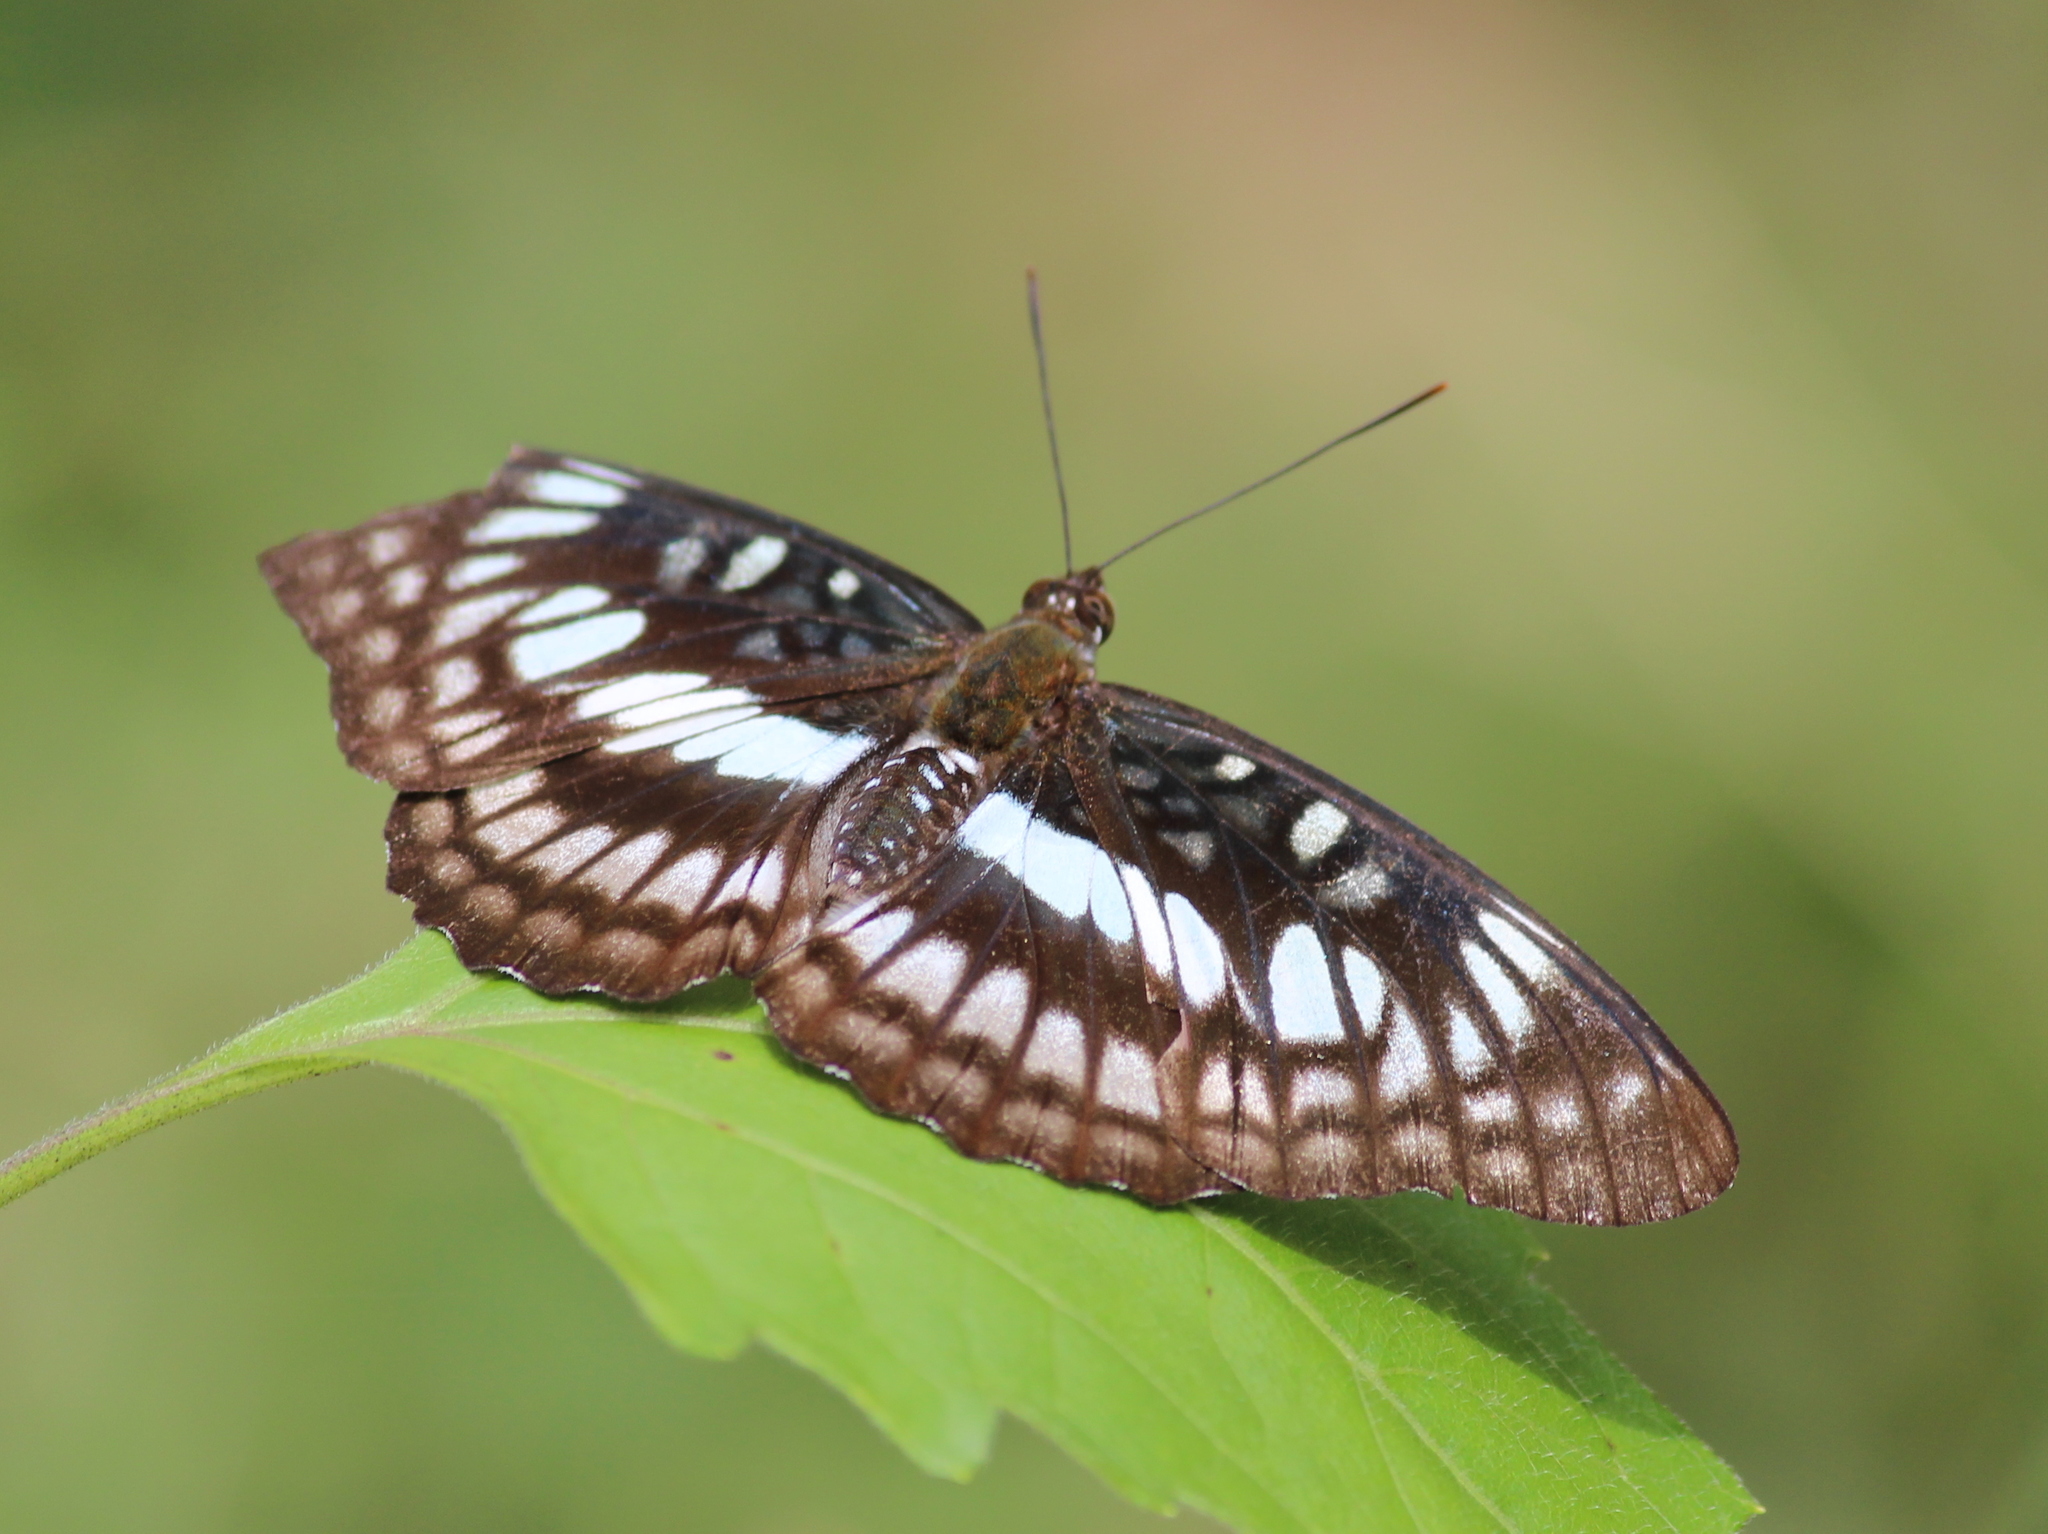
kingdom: Animalia
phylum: Arthropoda
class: Insecta
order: Lepidoptera
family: Nymphalidae
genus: Parathyma
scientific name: Parathyma ranga
